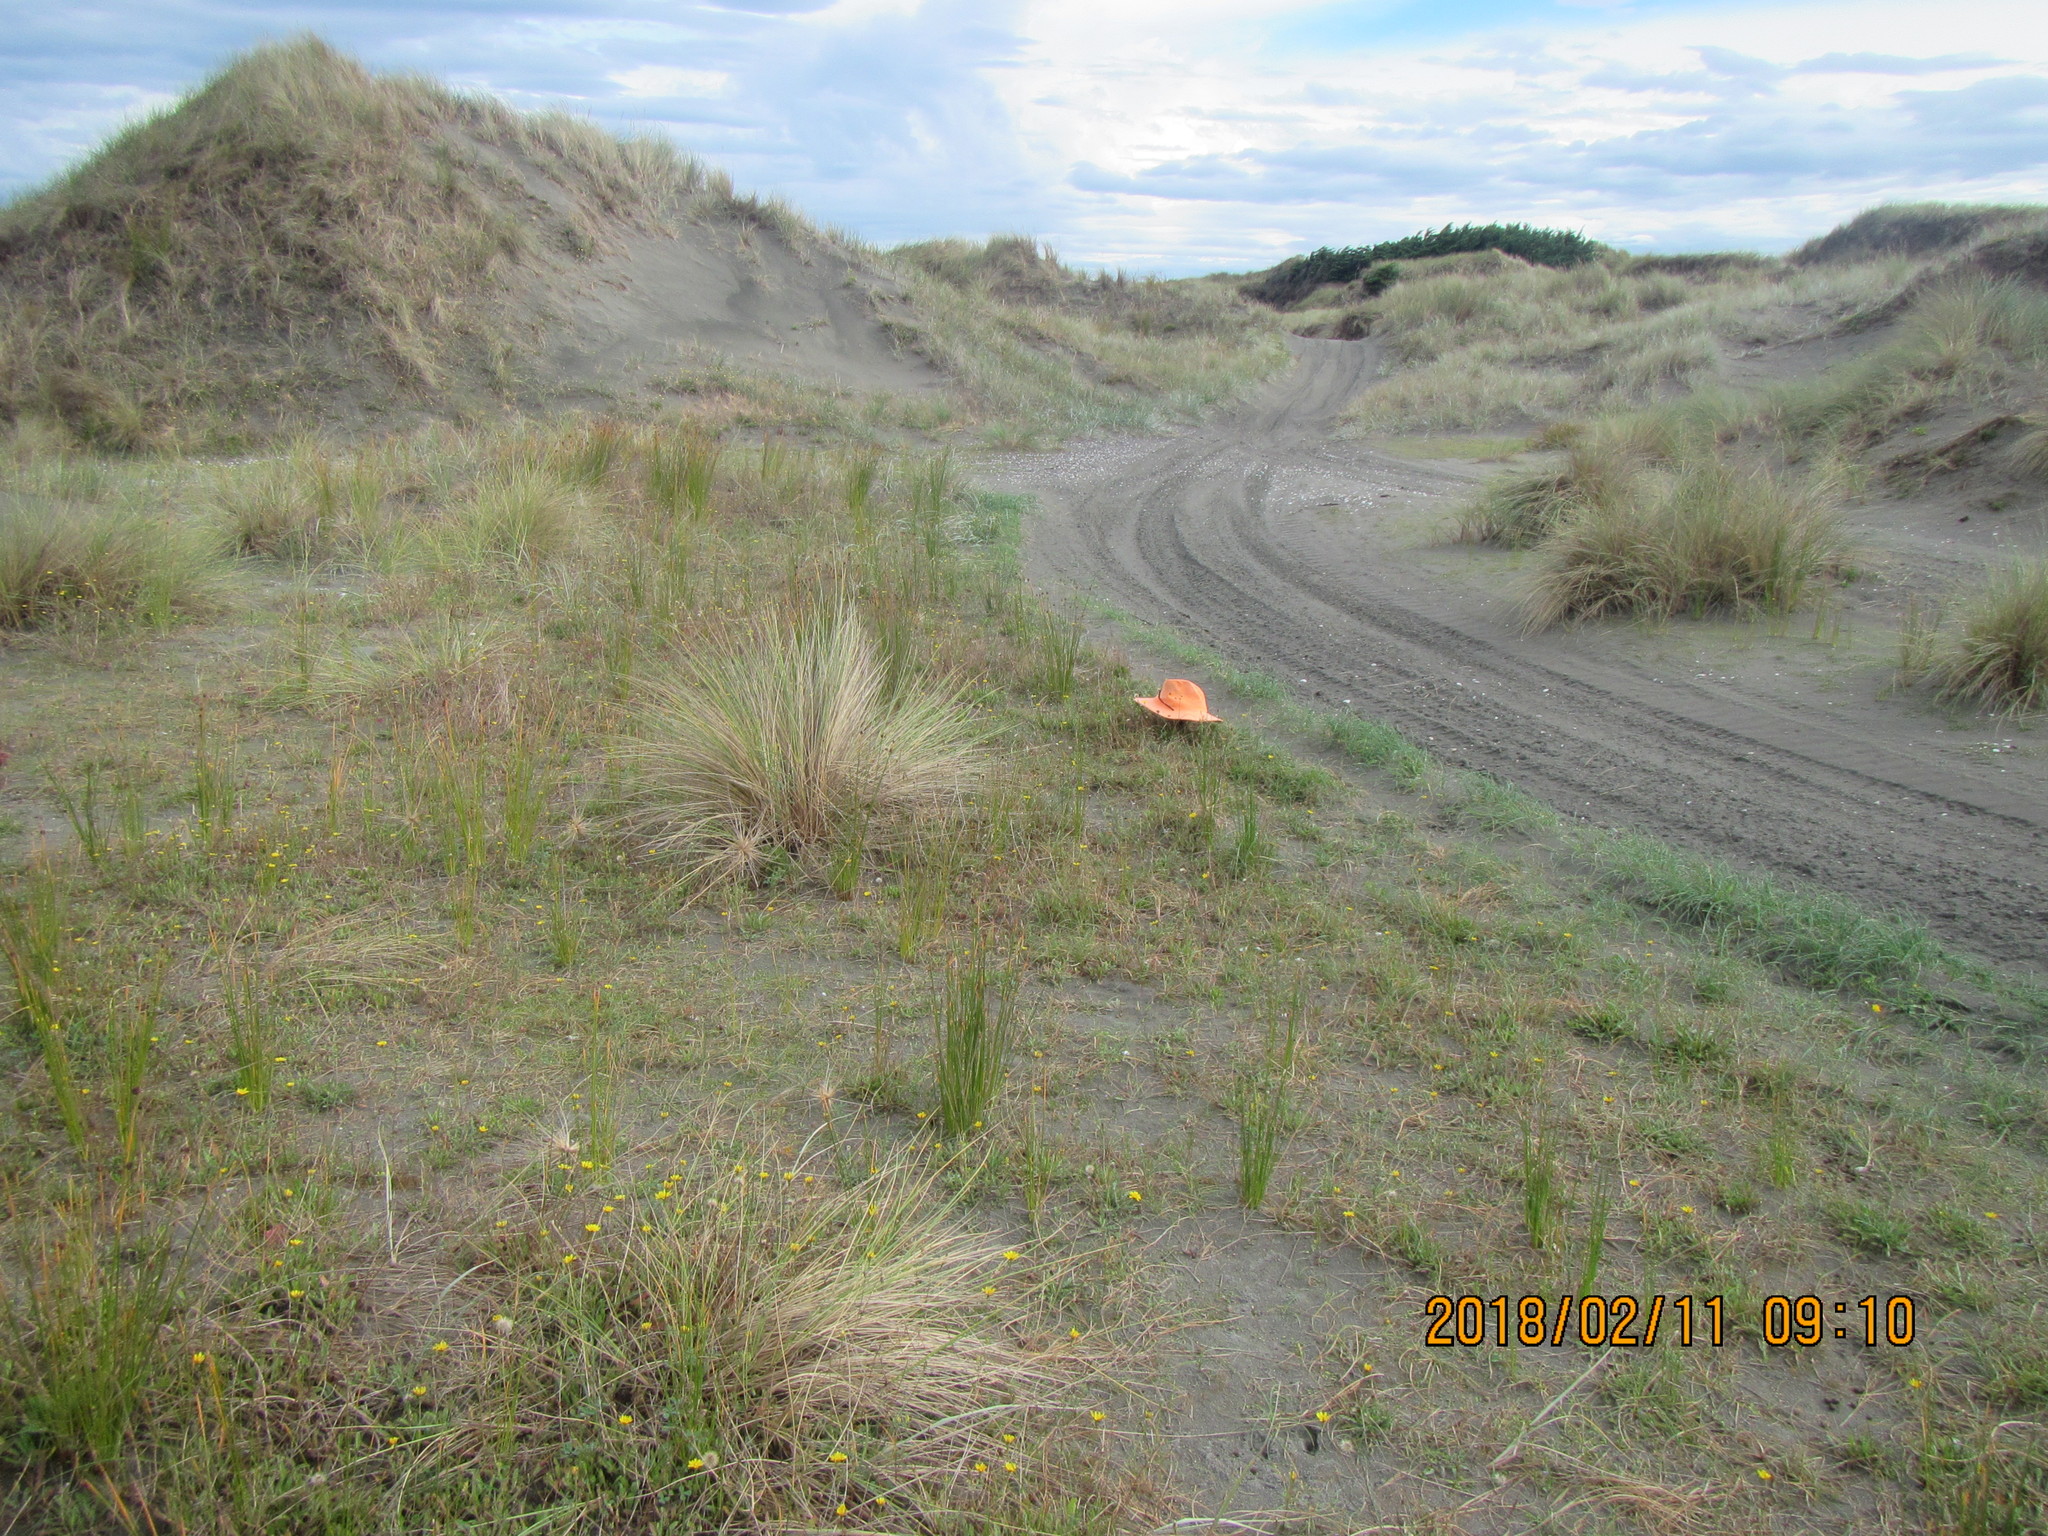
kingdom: Animalia
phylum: Arthropoda
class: Arachnida
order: Araneae
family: Theridiidae
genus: Latrodectus
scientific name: Latrodectus katipo
